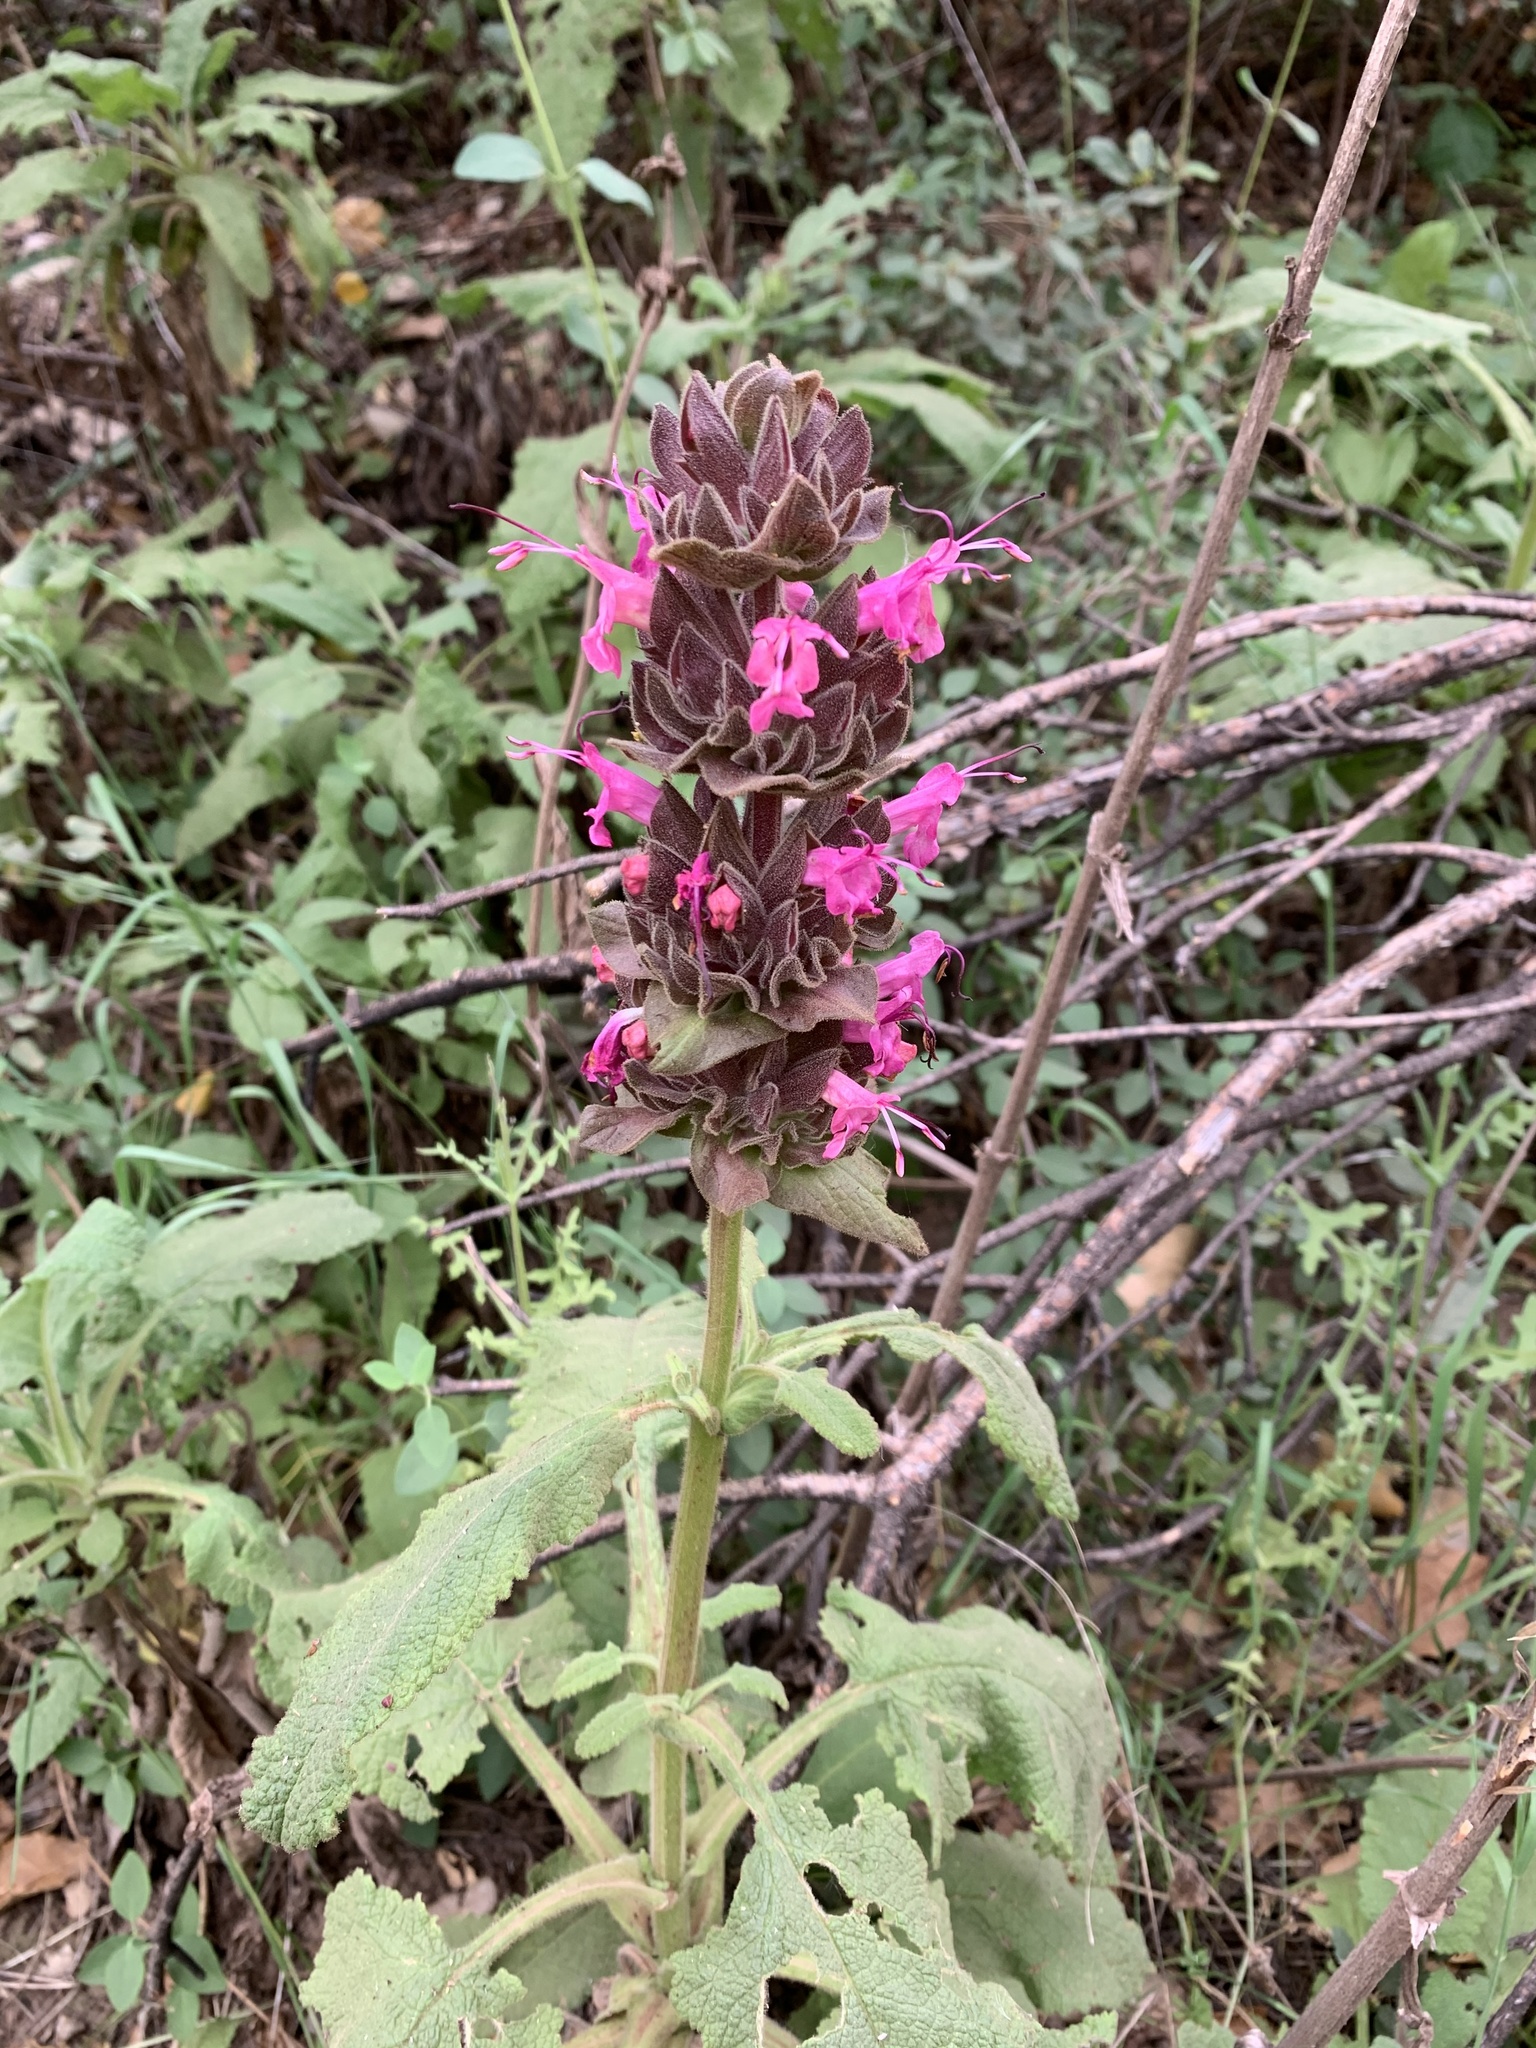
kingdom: Plantae
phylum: Tracheophyta
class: Magnoliopsida
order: Lamiales
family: Lamiaceae
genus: Salvia
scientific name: Salvia spathacea
